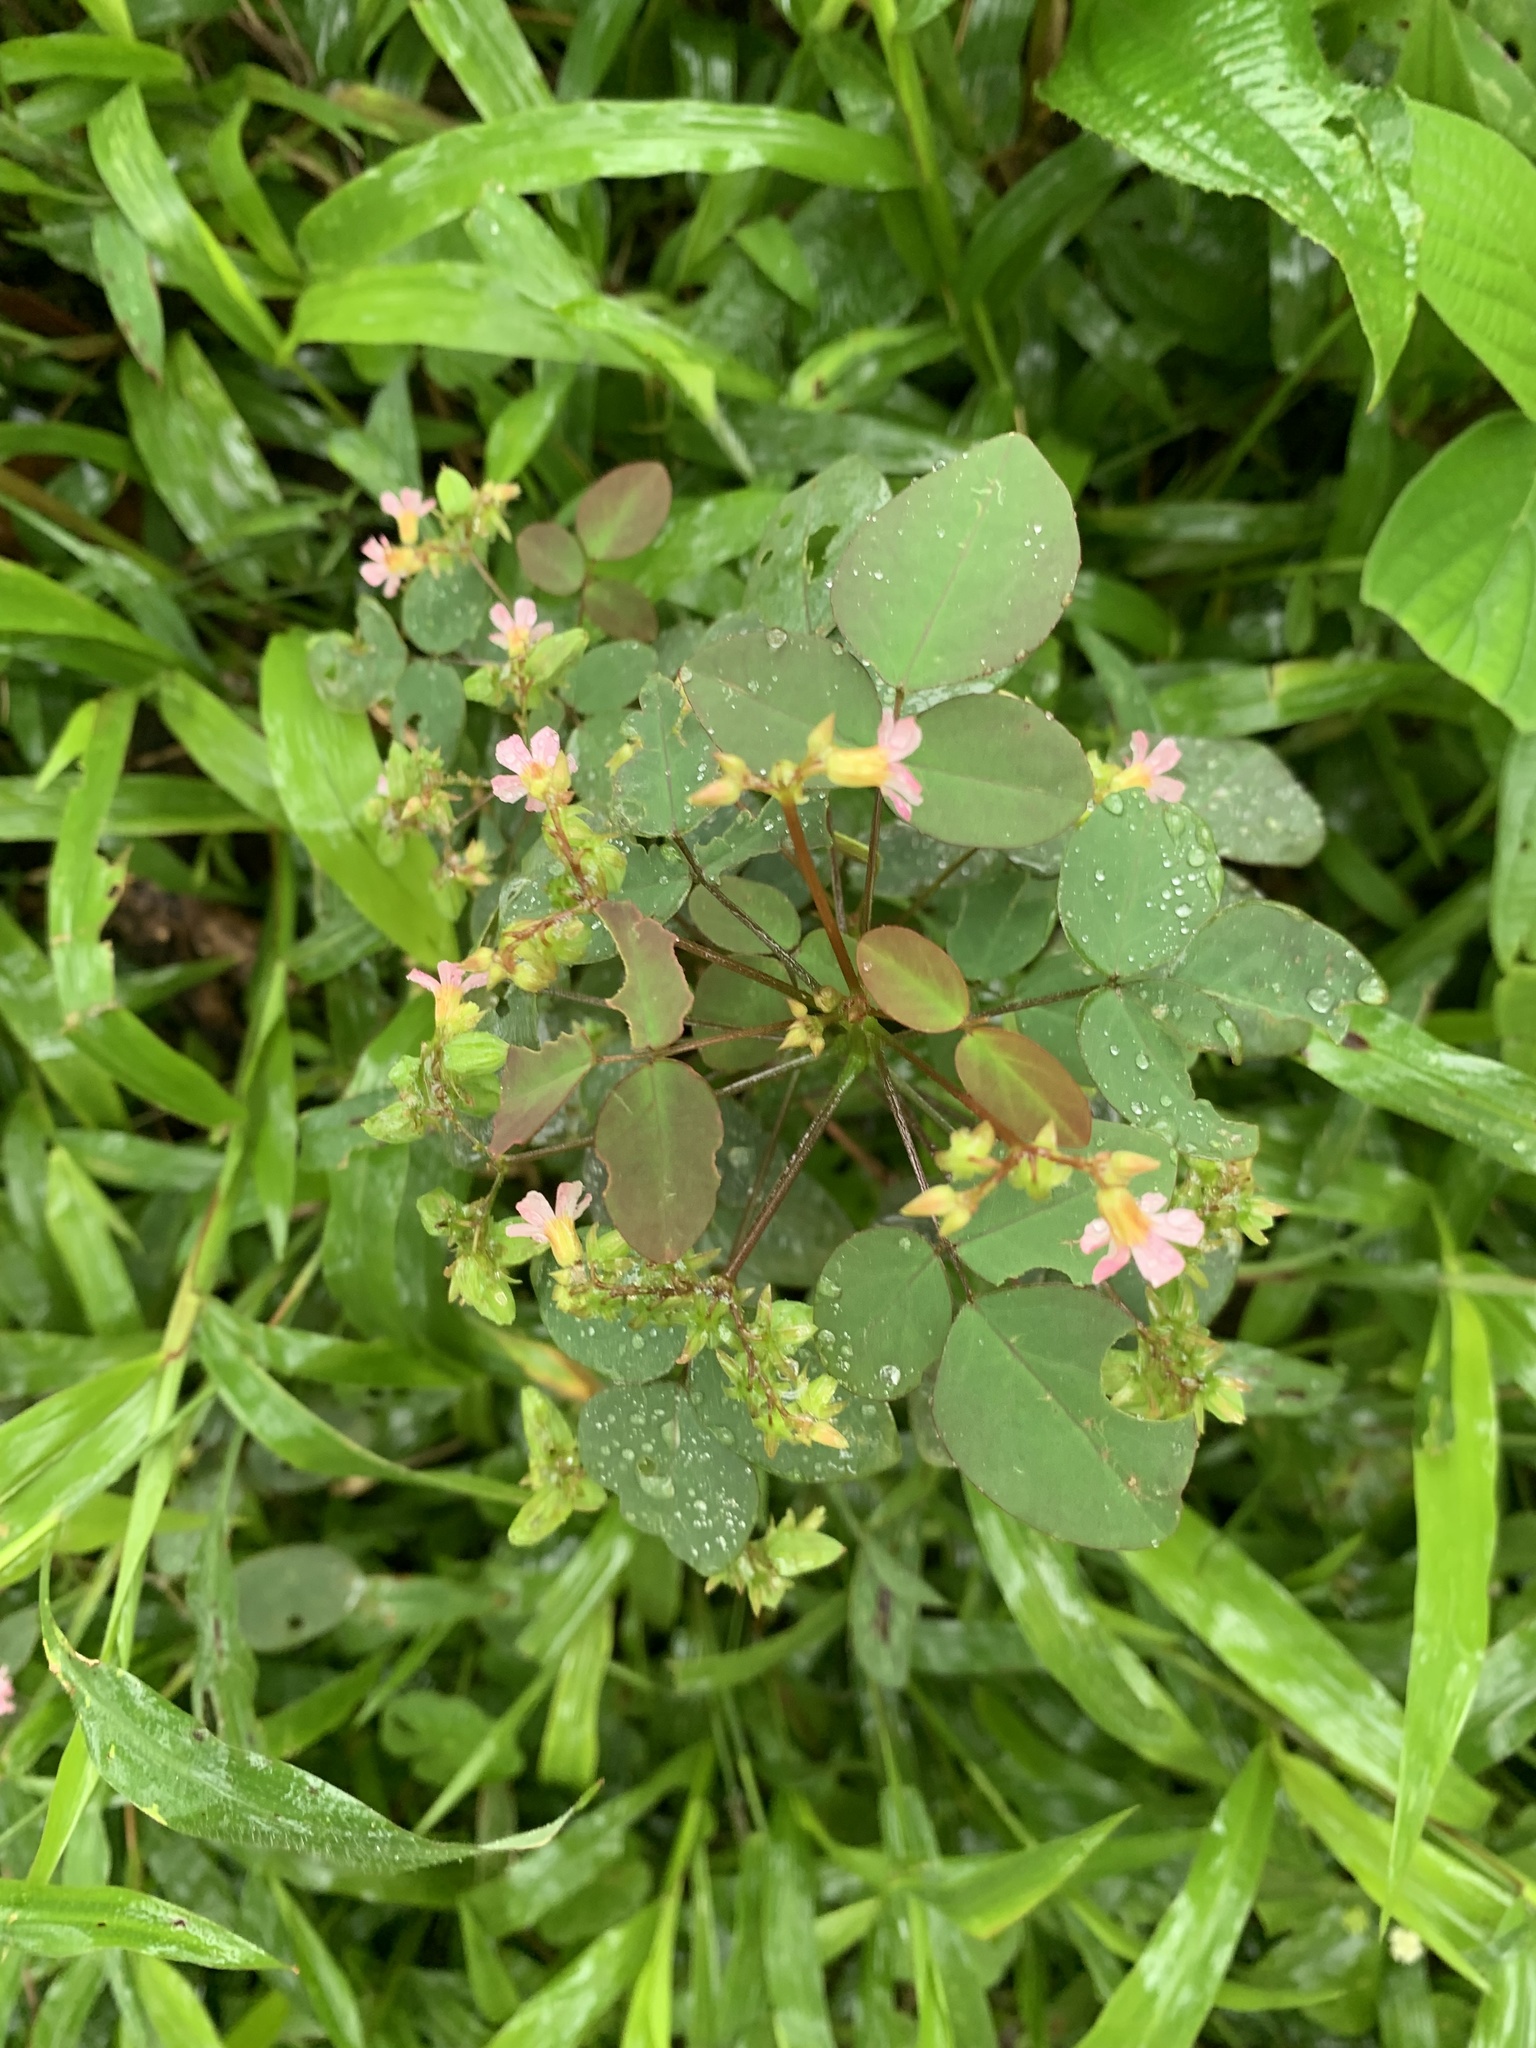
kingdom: Plantae
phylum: Tracheophyta
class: Magnoliopsida
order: Oxalidales
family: Oxalidaceae
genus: Oxalis
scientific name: Oxalis barrelieri
